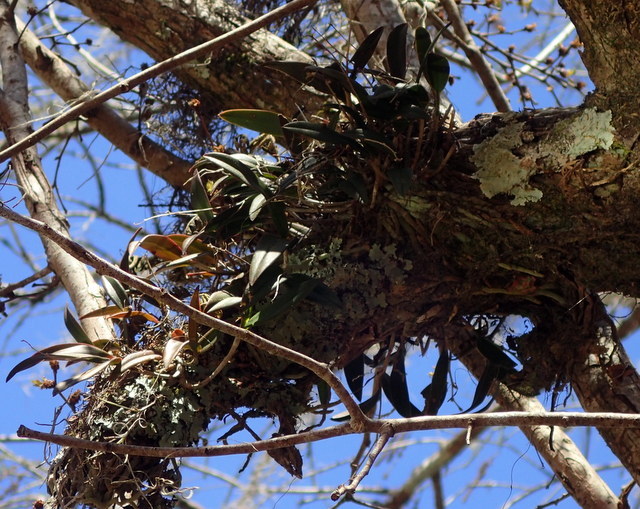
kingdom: Plantae
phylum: Tracheophyta
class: Liliopsida
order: Asparagales
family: Orchidaceae
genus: Epidendrum
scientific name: Epidendrum conopseum
